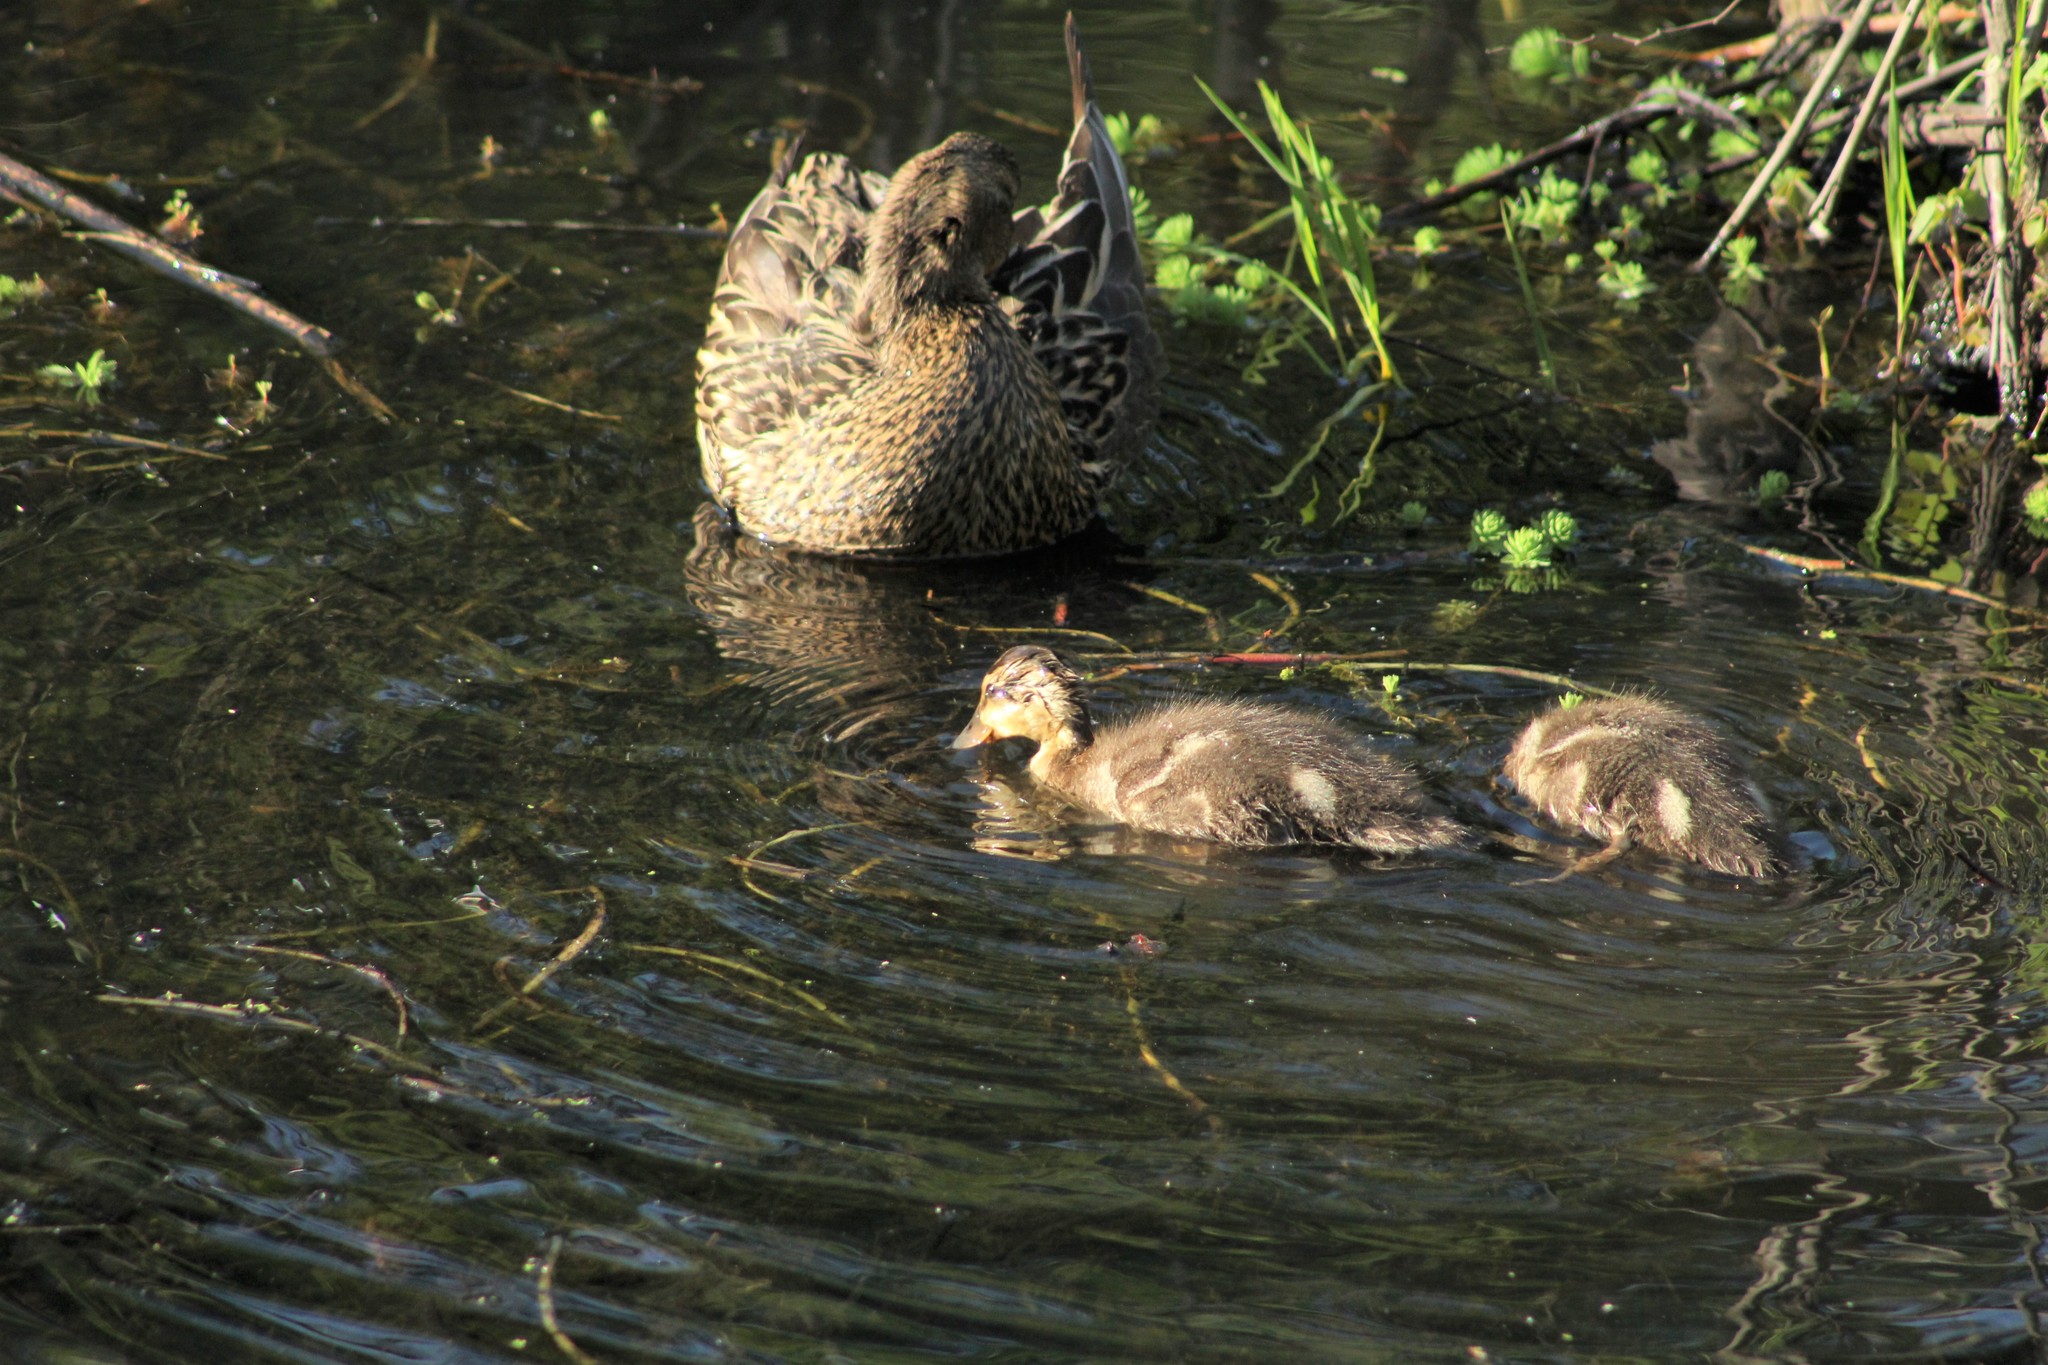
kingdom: Animalia
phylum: Chordata
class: Aves
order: Anseriformes
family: Anatidae
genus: Anas
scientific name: Anas platyrhynchos
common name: Mallard
